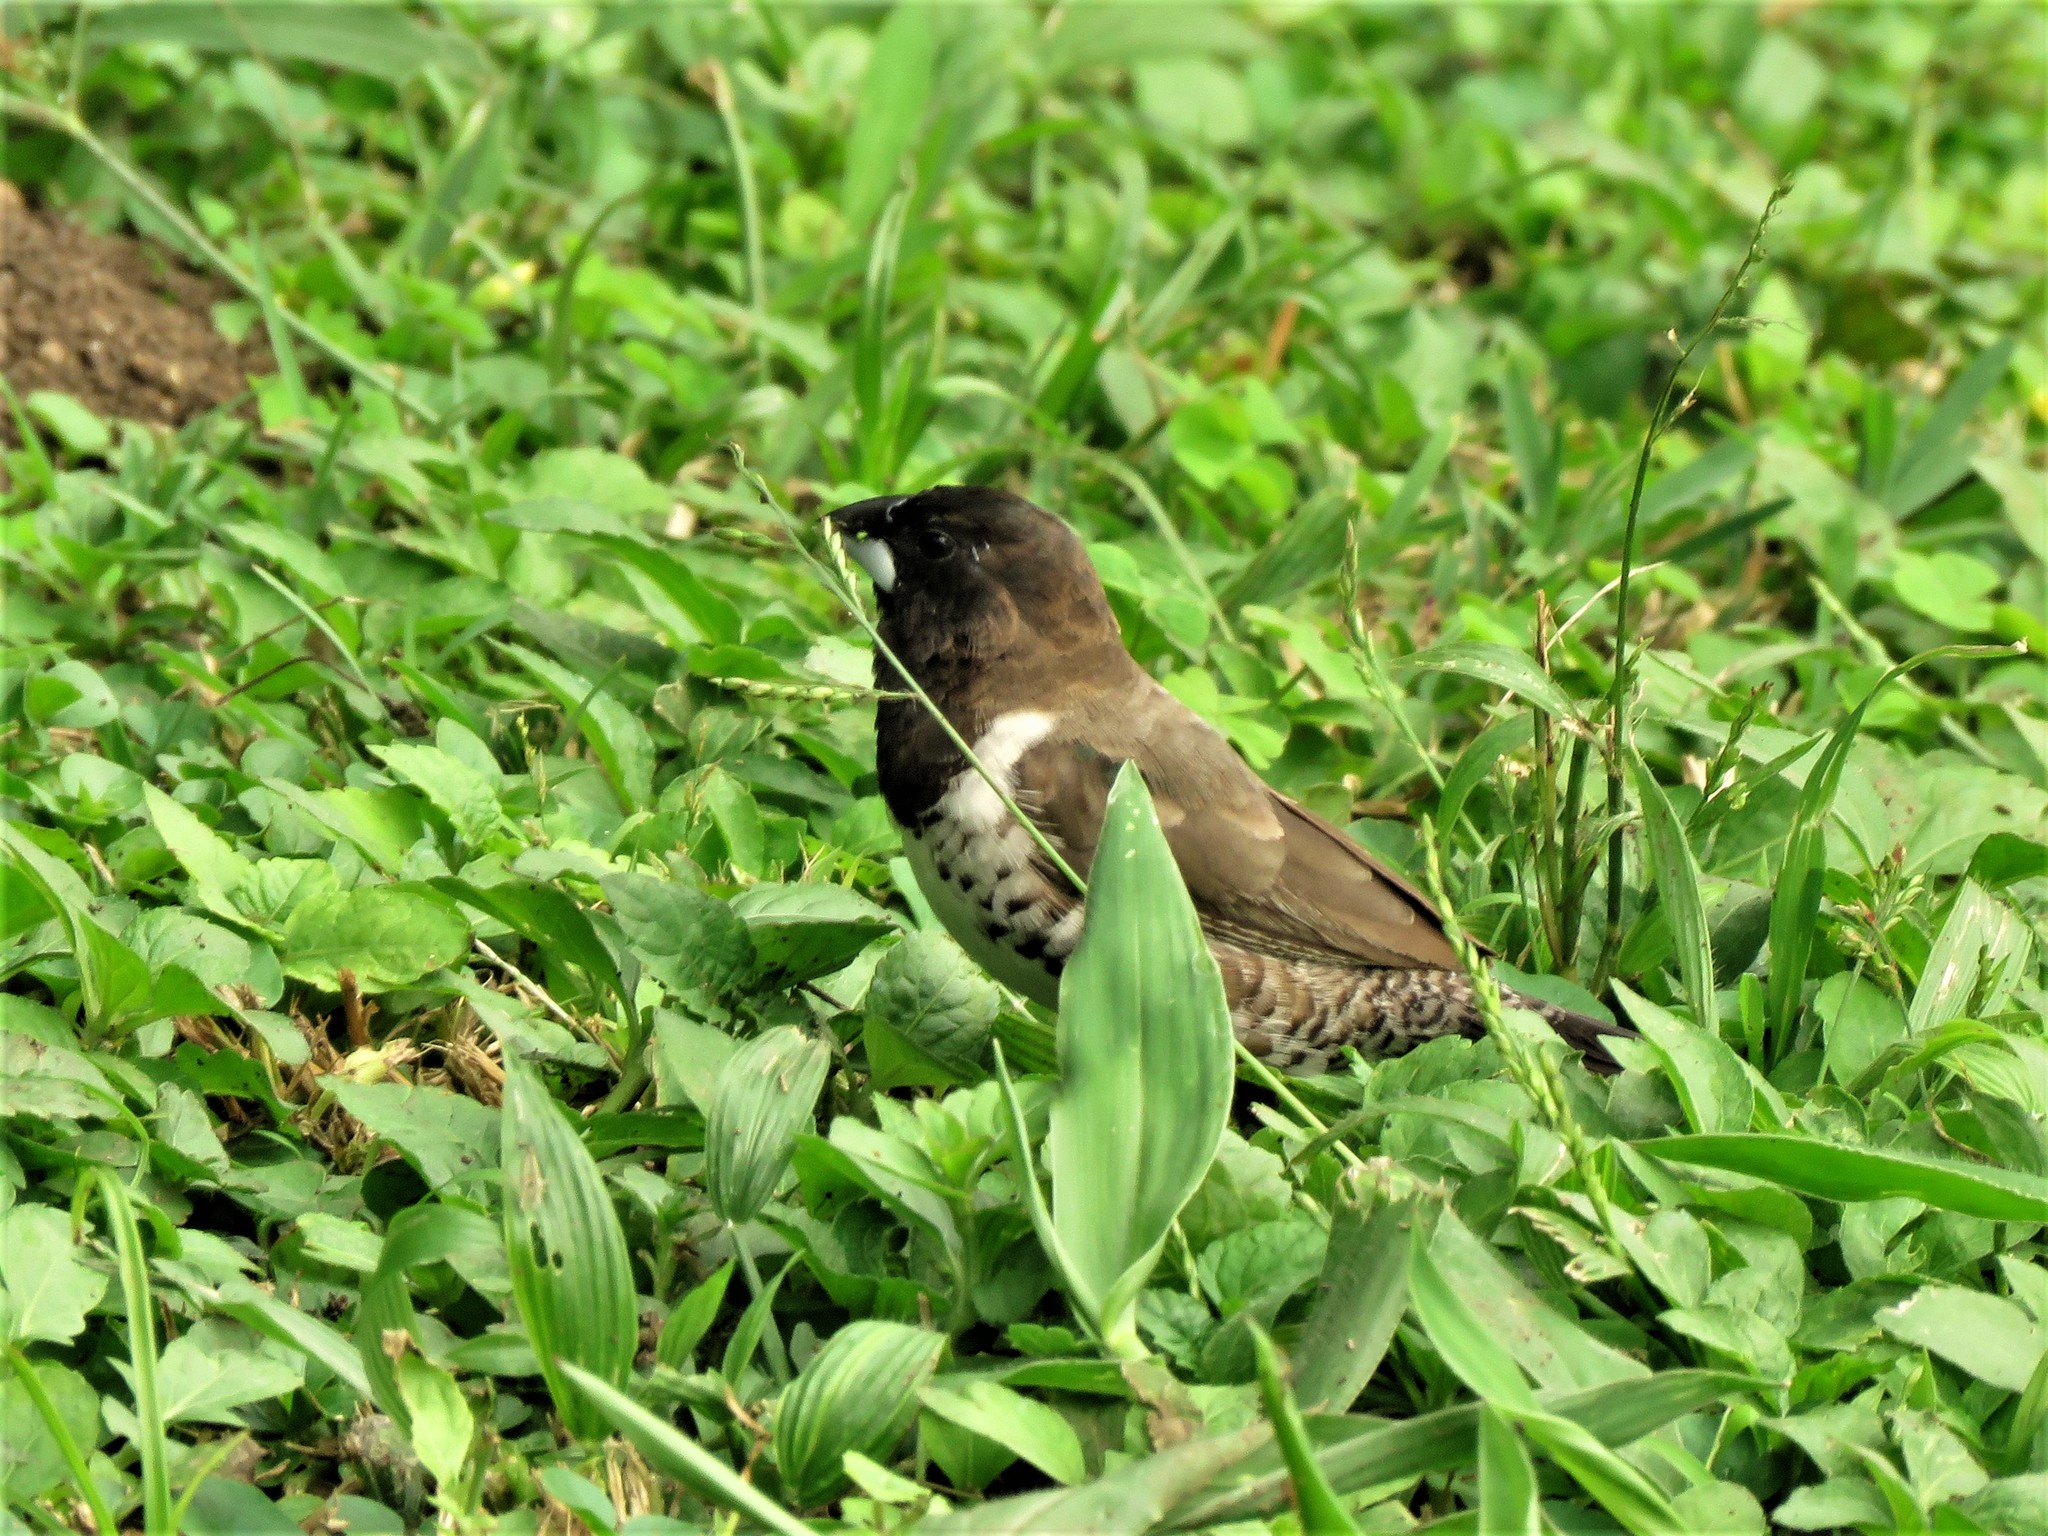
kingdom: Animalia
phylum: Chordata
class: Aves
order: Passeriformes
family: Estrildidae
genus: Lonchura
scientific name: Lonchura cucullata
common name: Bronze mannikin
